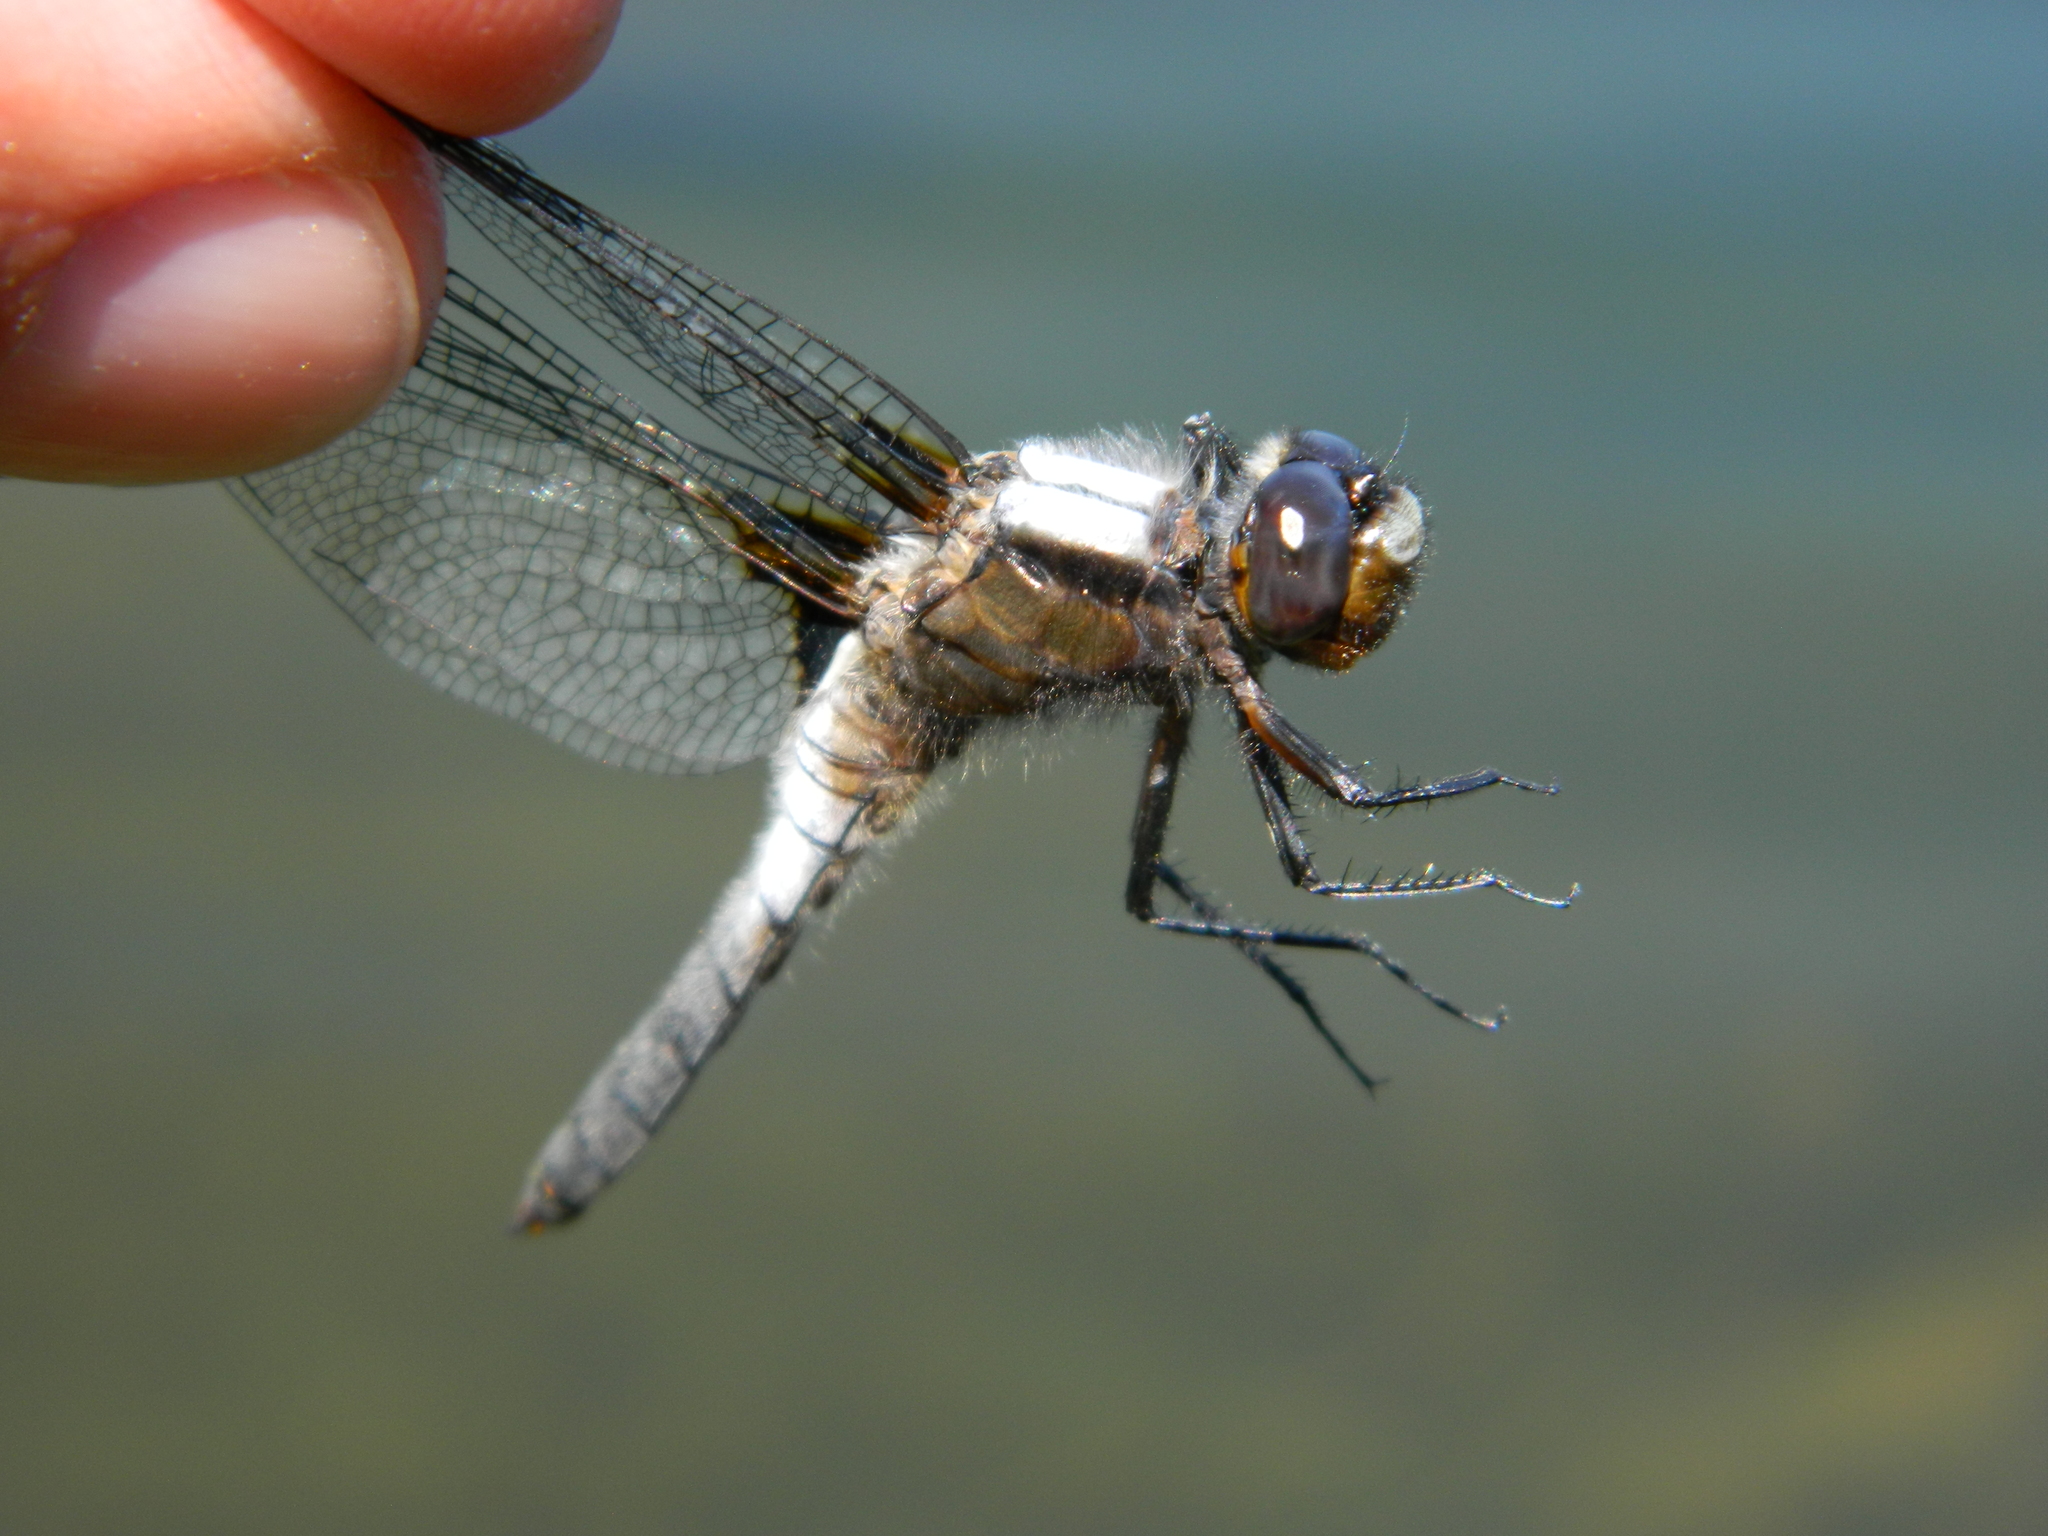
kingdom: Animalia
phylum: Arthropoda
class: Insecta
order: Odonata
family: Libellulidae
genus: Ladona
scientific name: Ladona julia
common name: Chalk-fronted corporal
